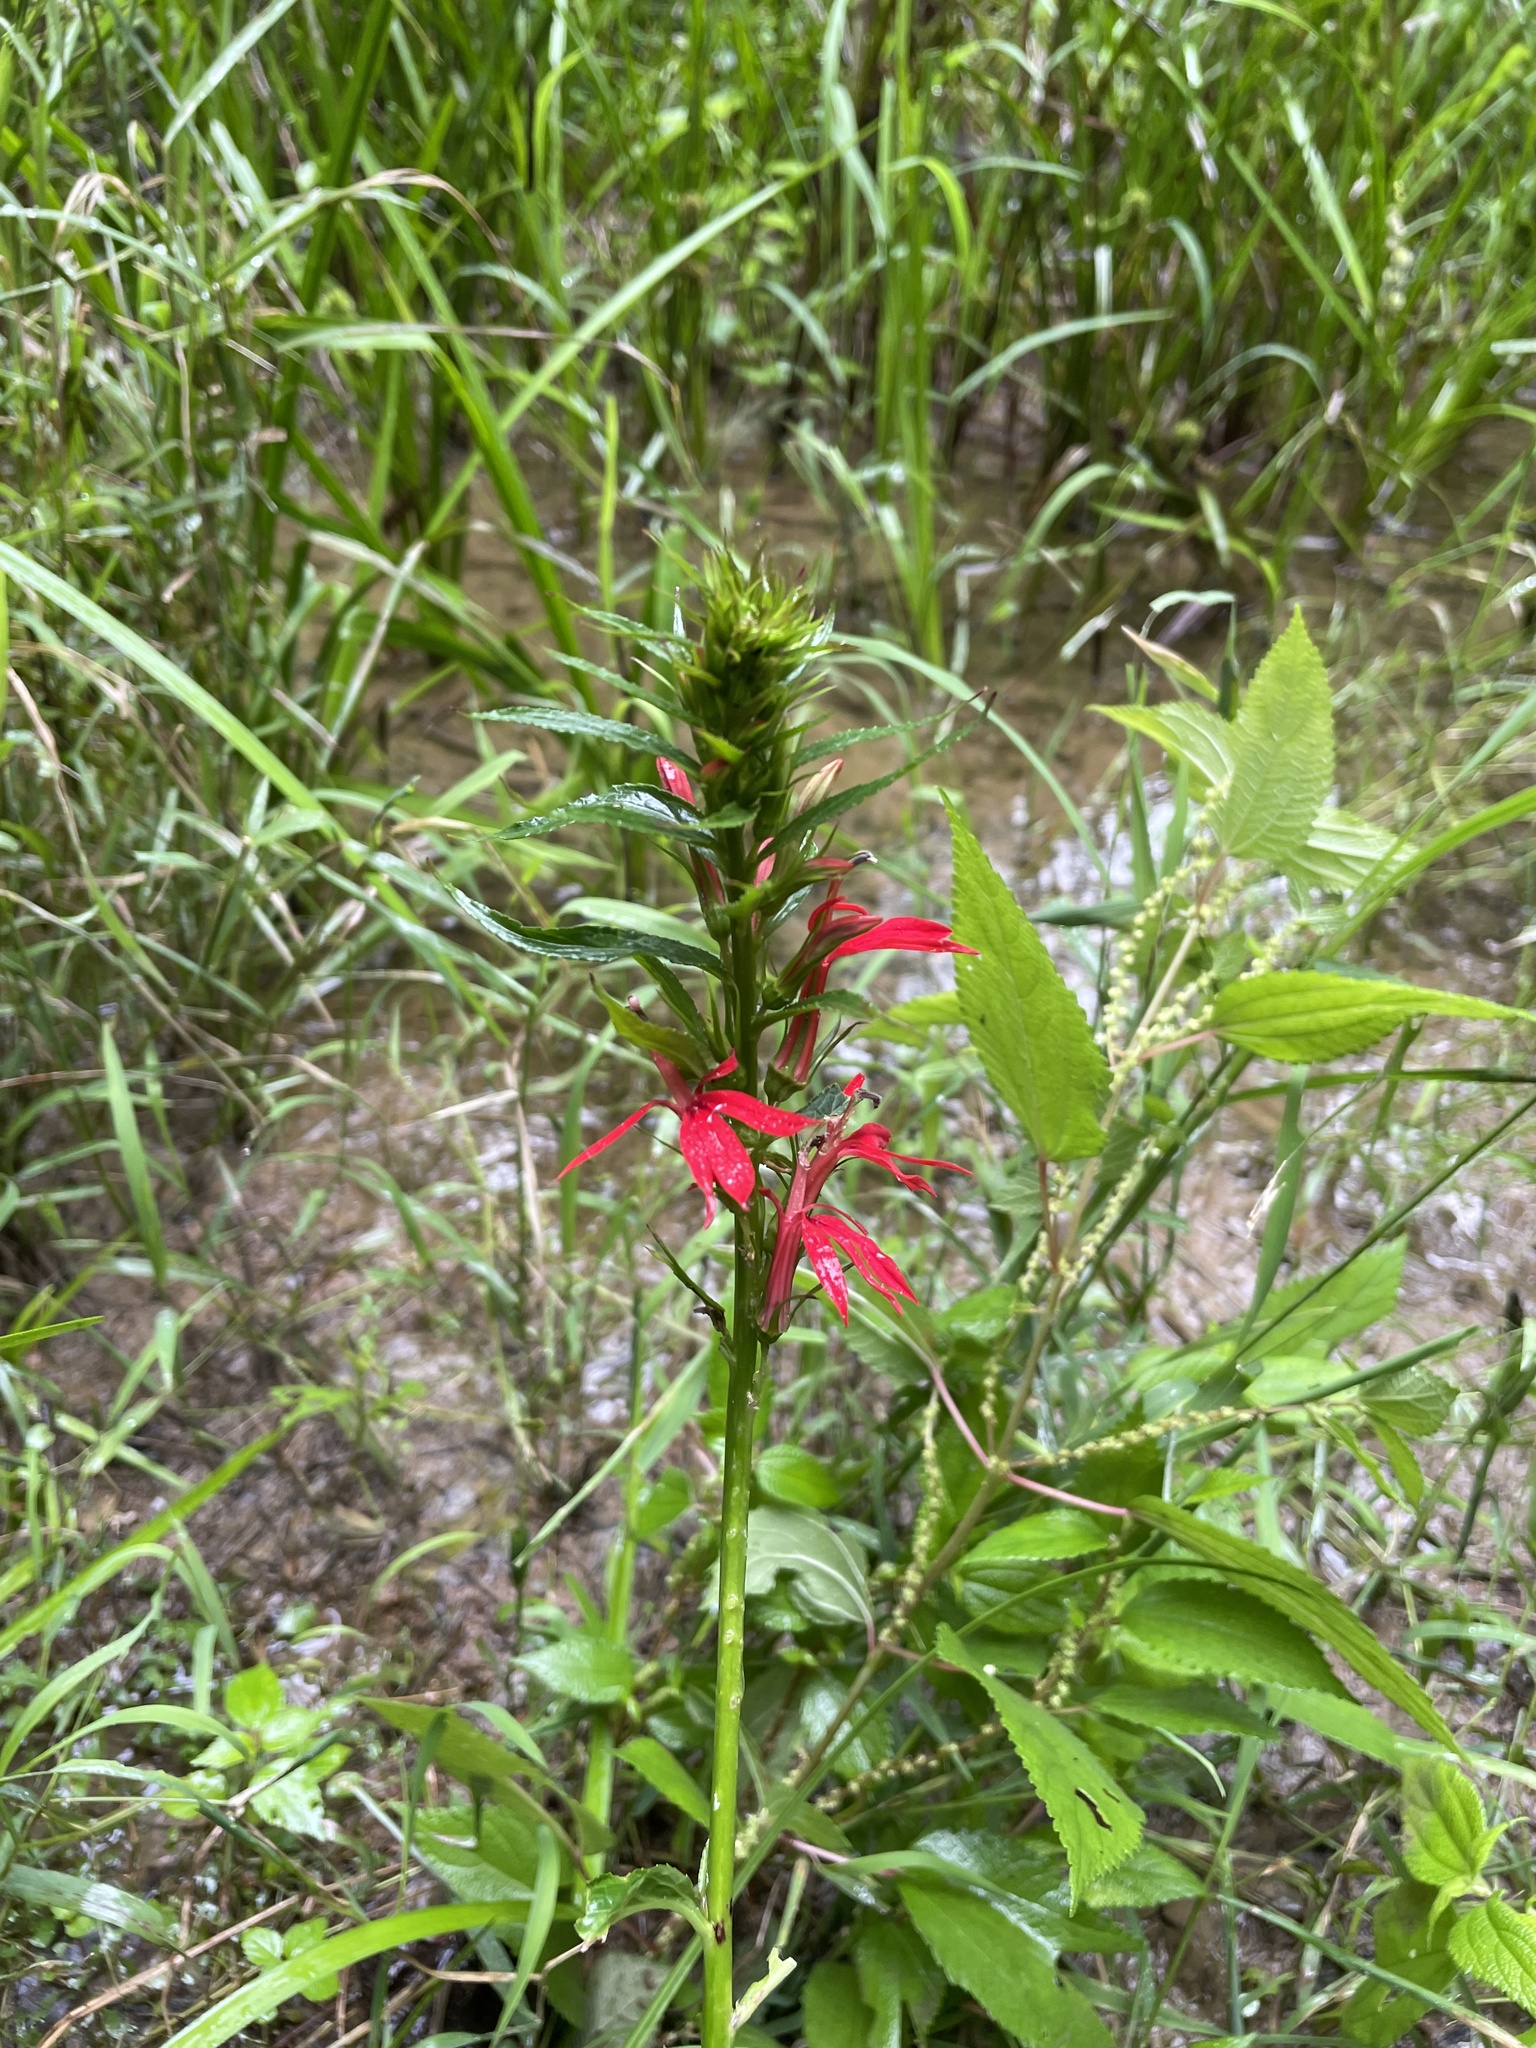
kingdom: Plantae
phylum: Tracheophyta
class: Magnoliopsida
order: Asterales
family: Campanulaceae
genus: Lobelia
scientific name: Lobelia cardinalis
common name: Cardinal flower
